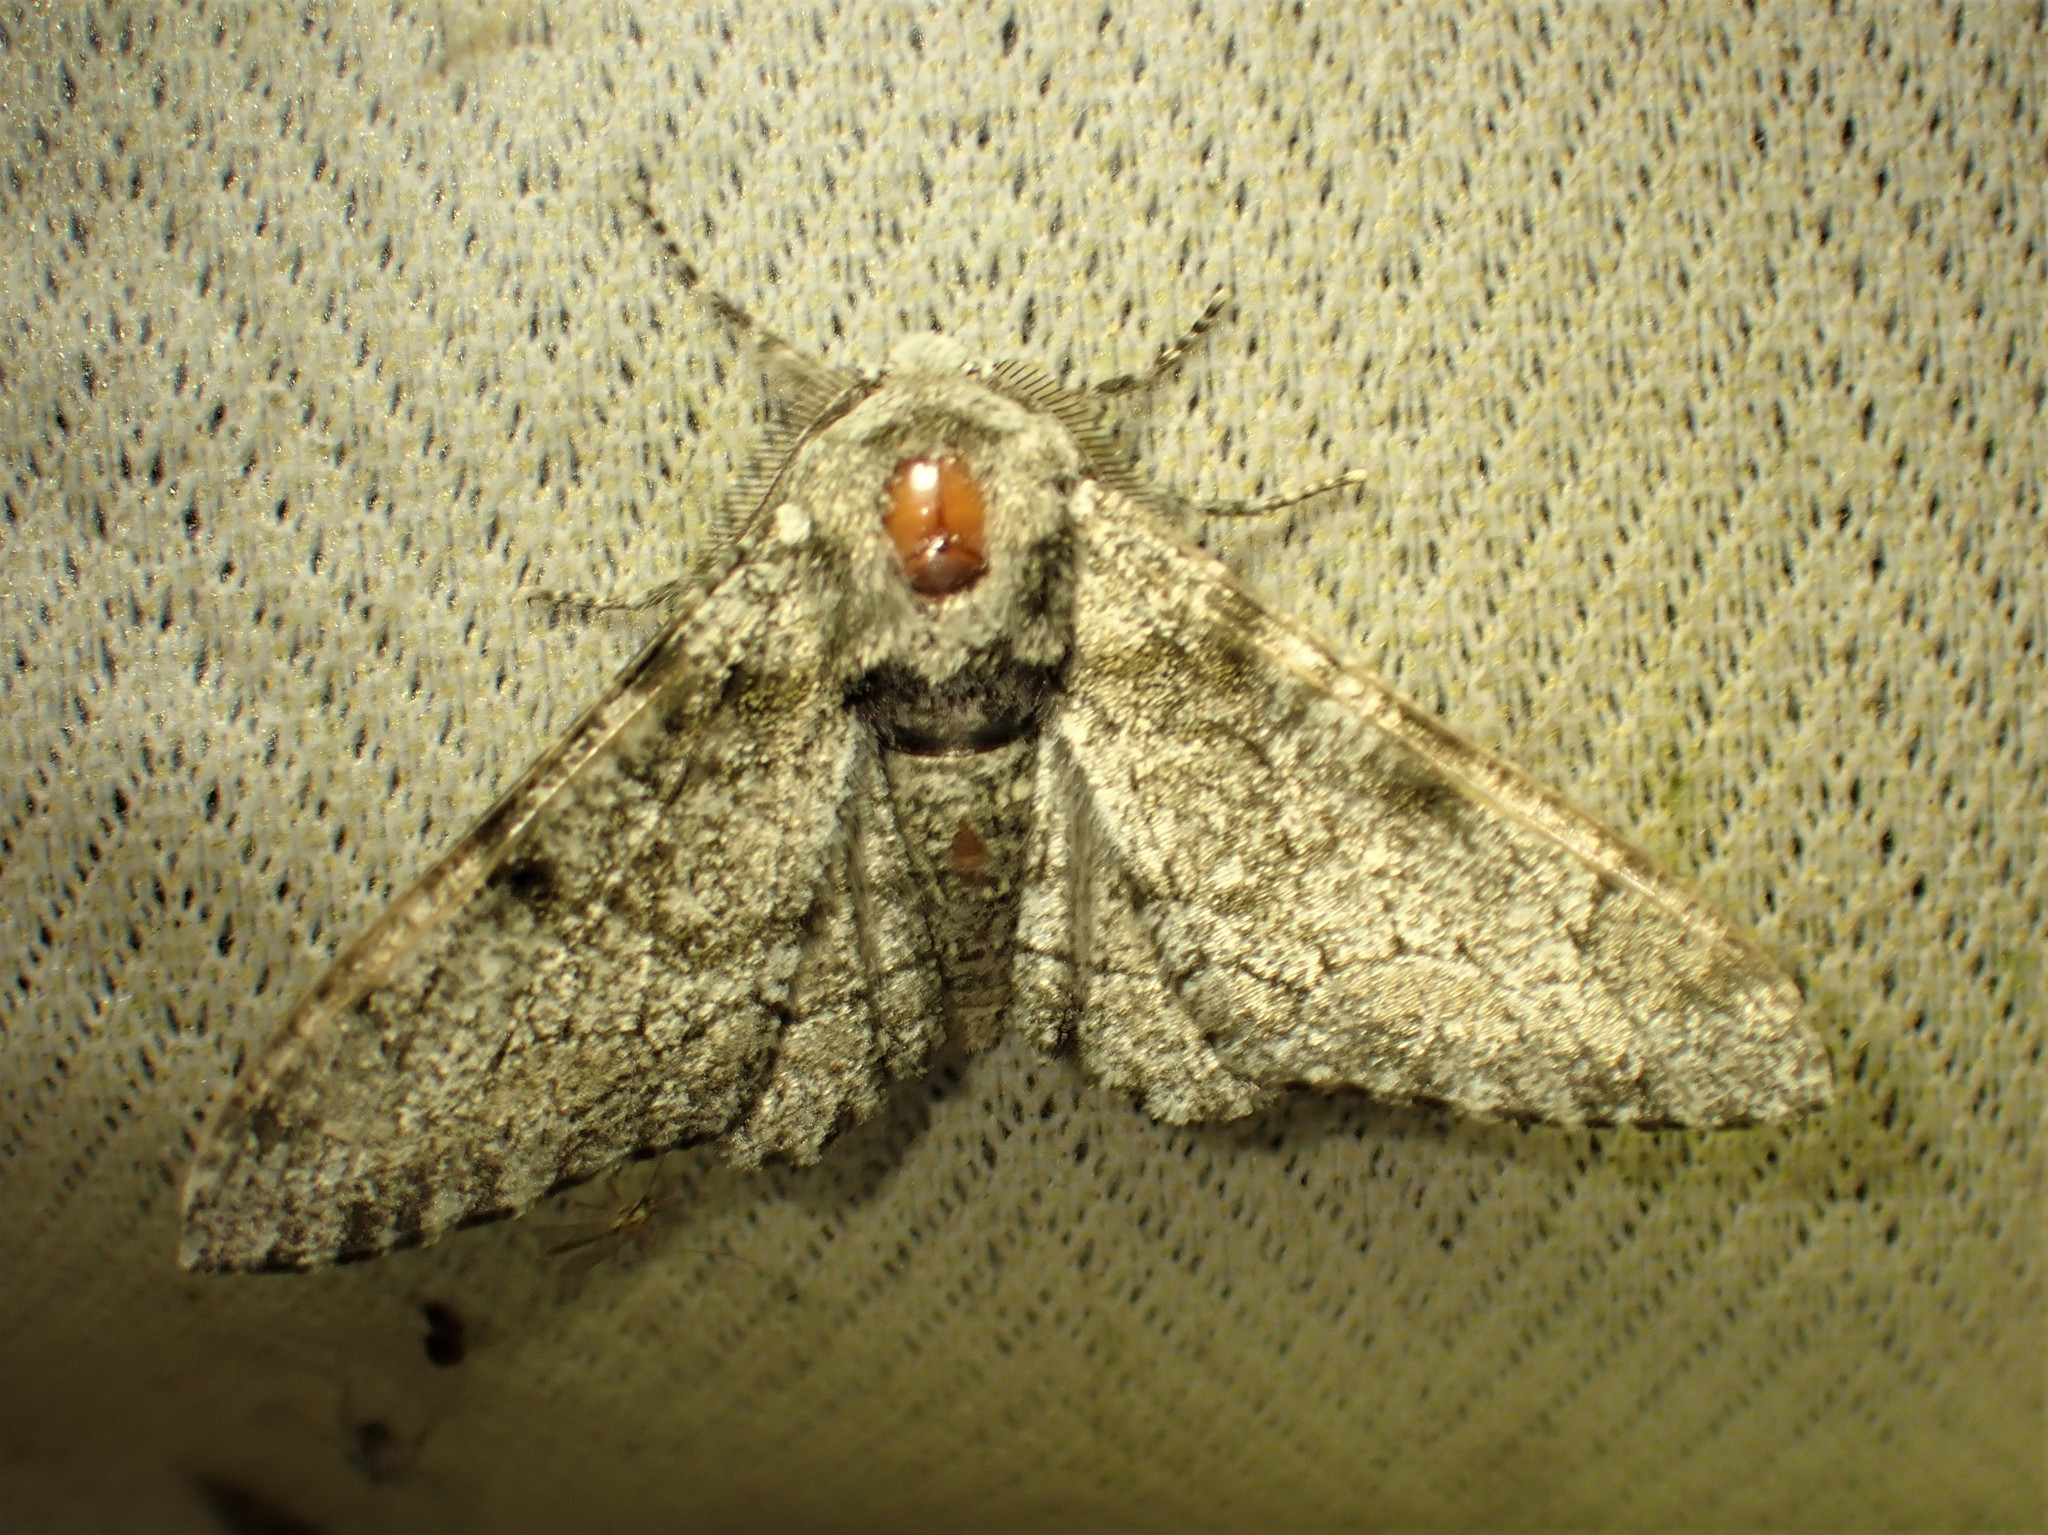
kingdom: Animalia
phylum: Arthropoda
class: Insecta
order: Lepidoptera
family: Geometridae
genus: Biston
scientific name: Biston betularia
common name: Peppered moth
